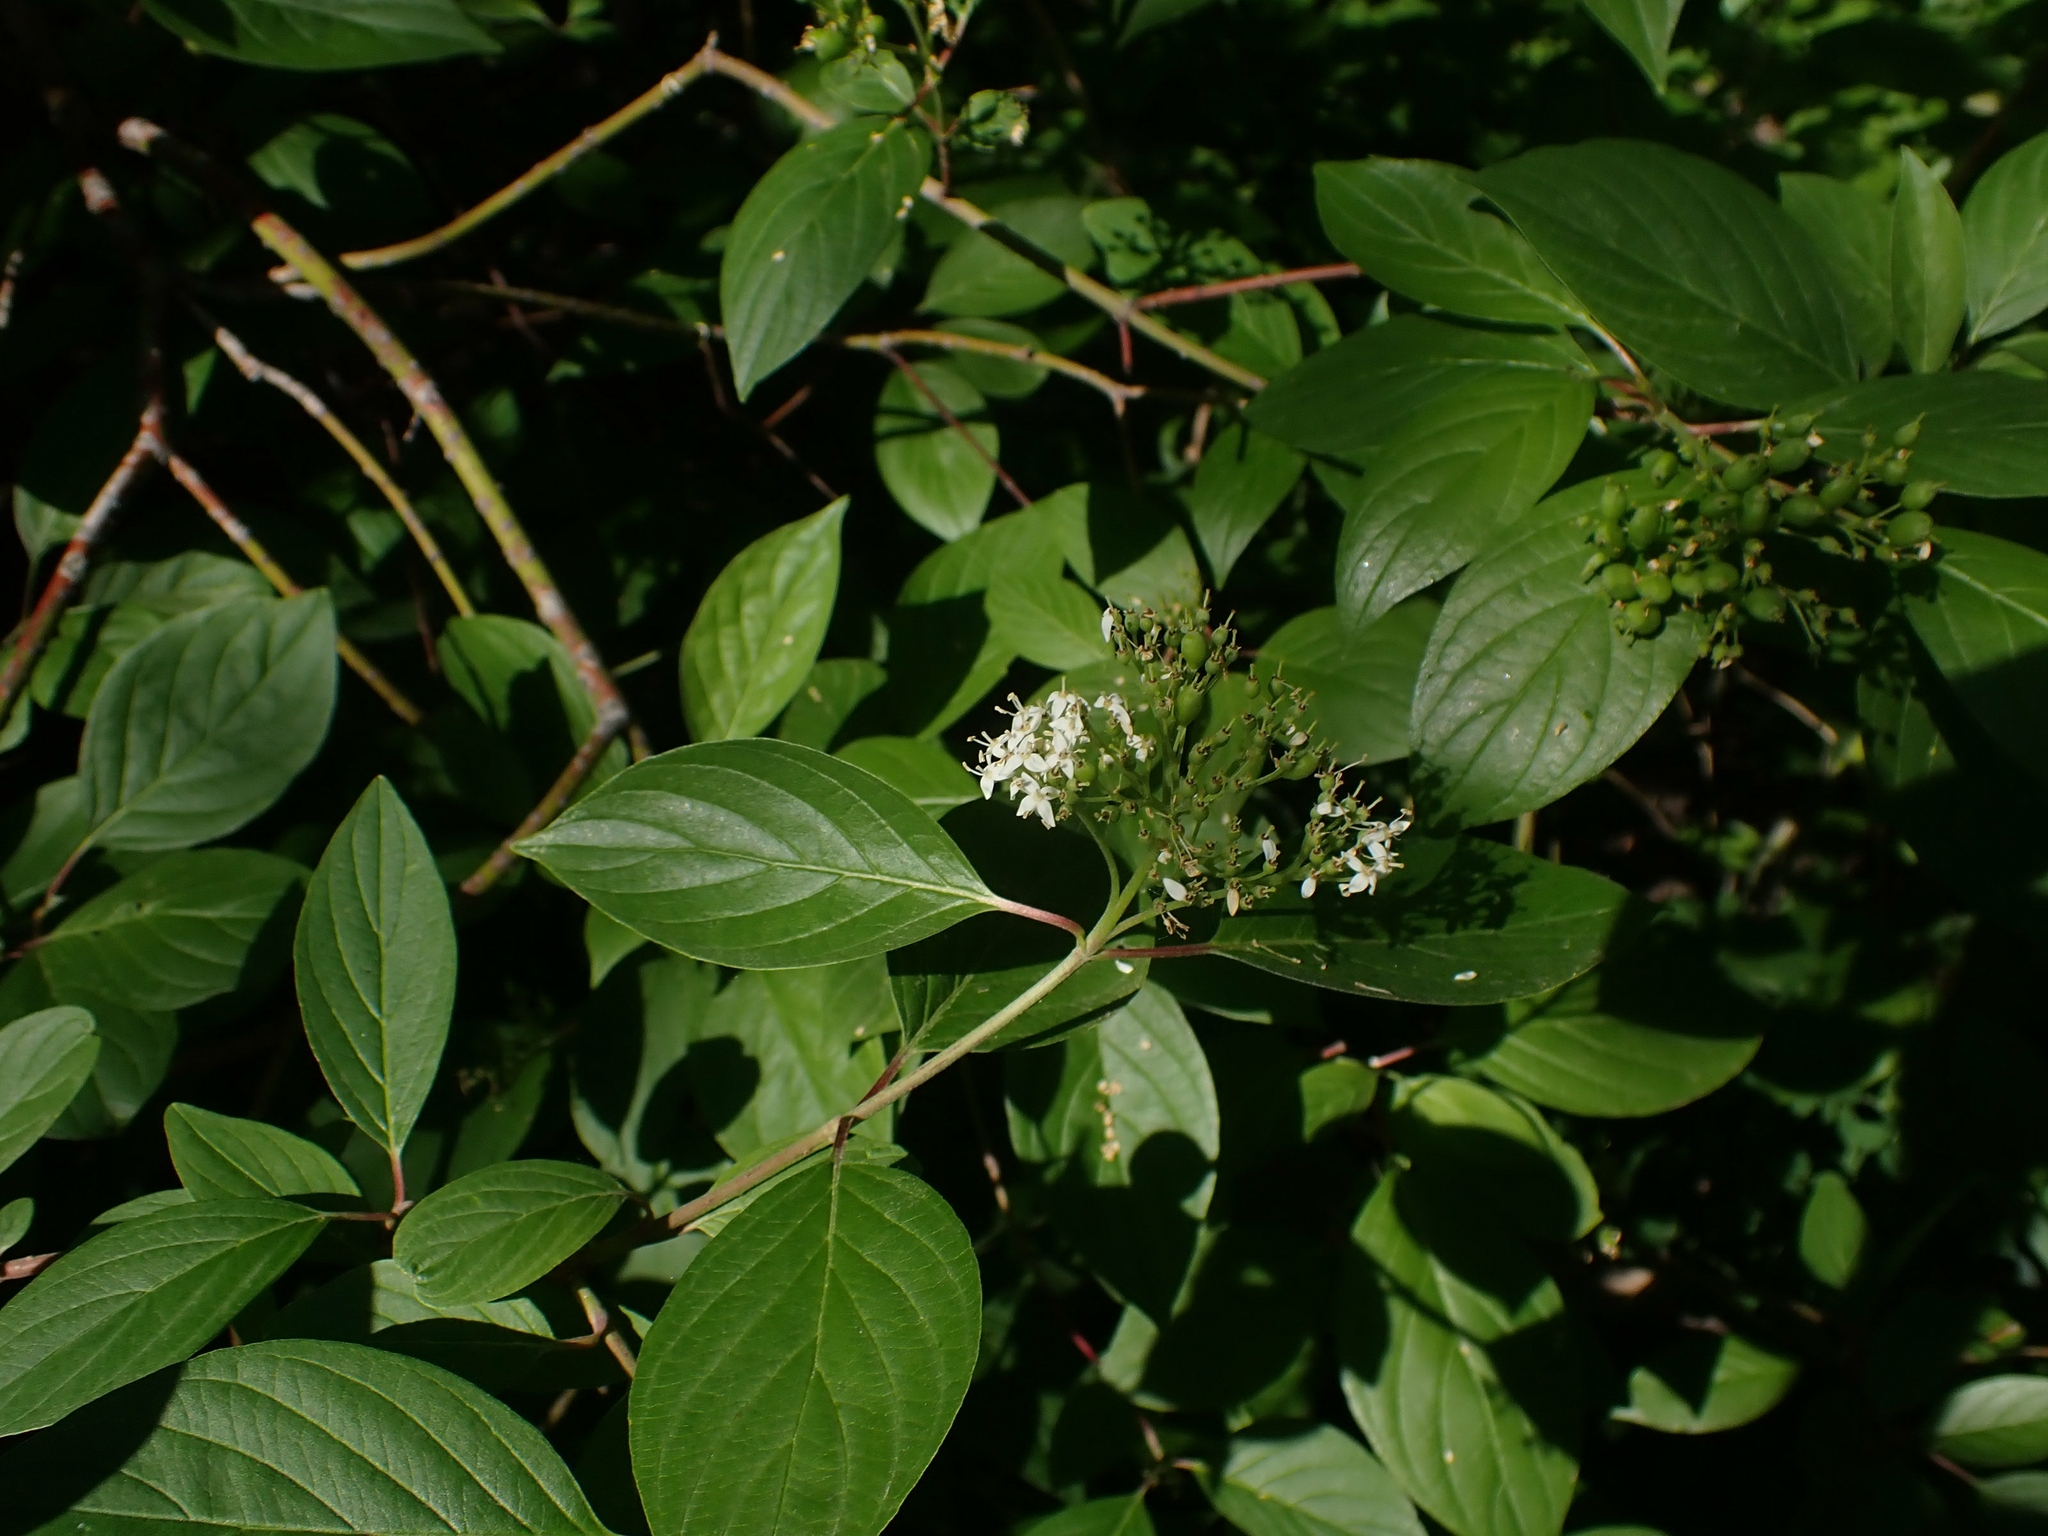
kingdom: Plantae
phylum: Tracheophyta
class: Magnoliopsida
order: Cornales
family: Cornaceae
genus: Cornus
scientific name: Cornus sericea
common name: Red-osier dogwood
